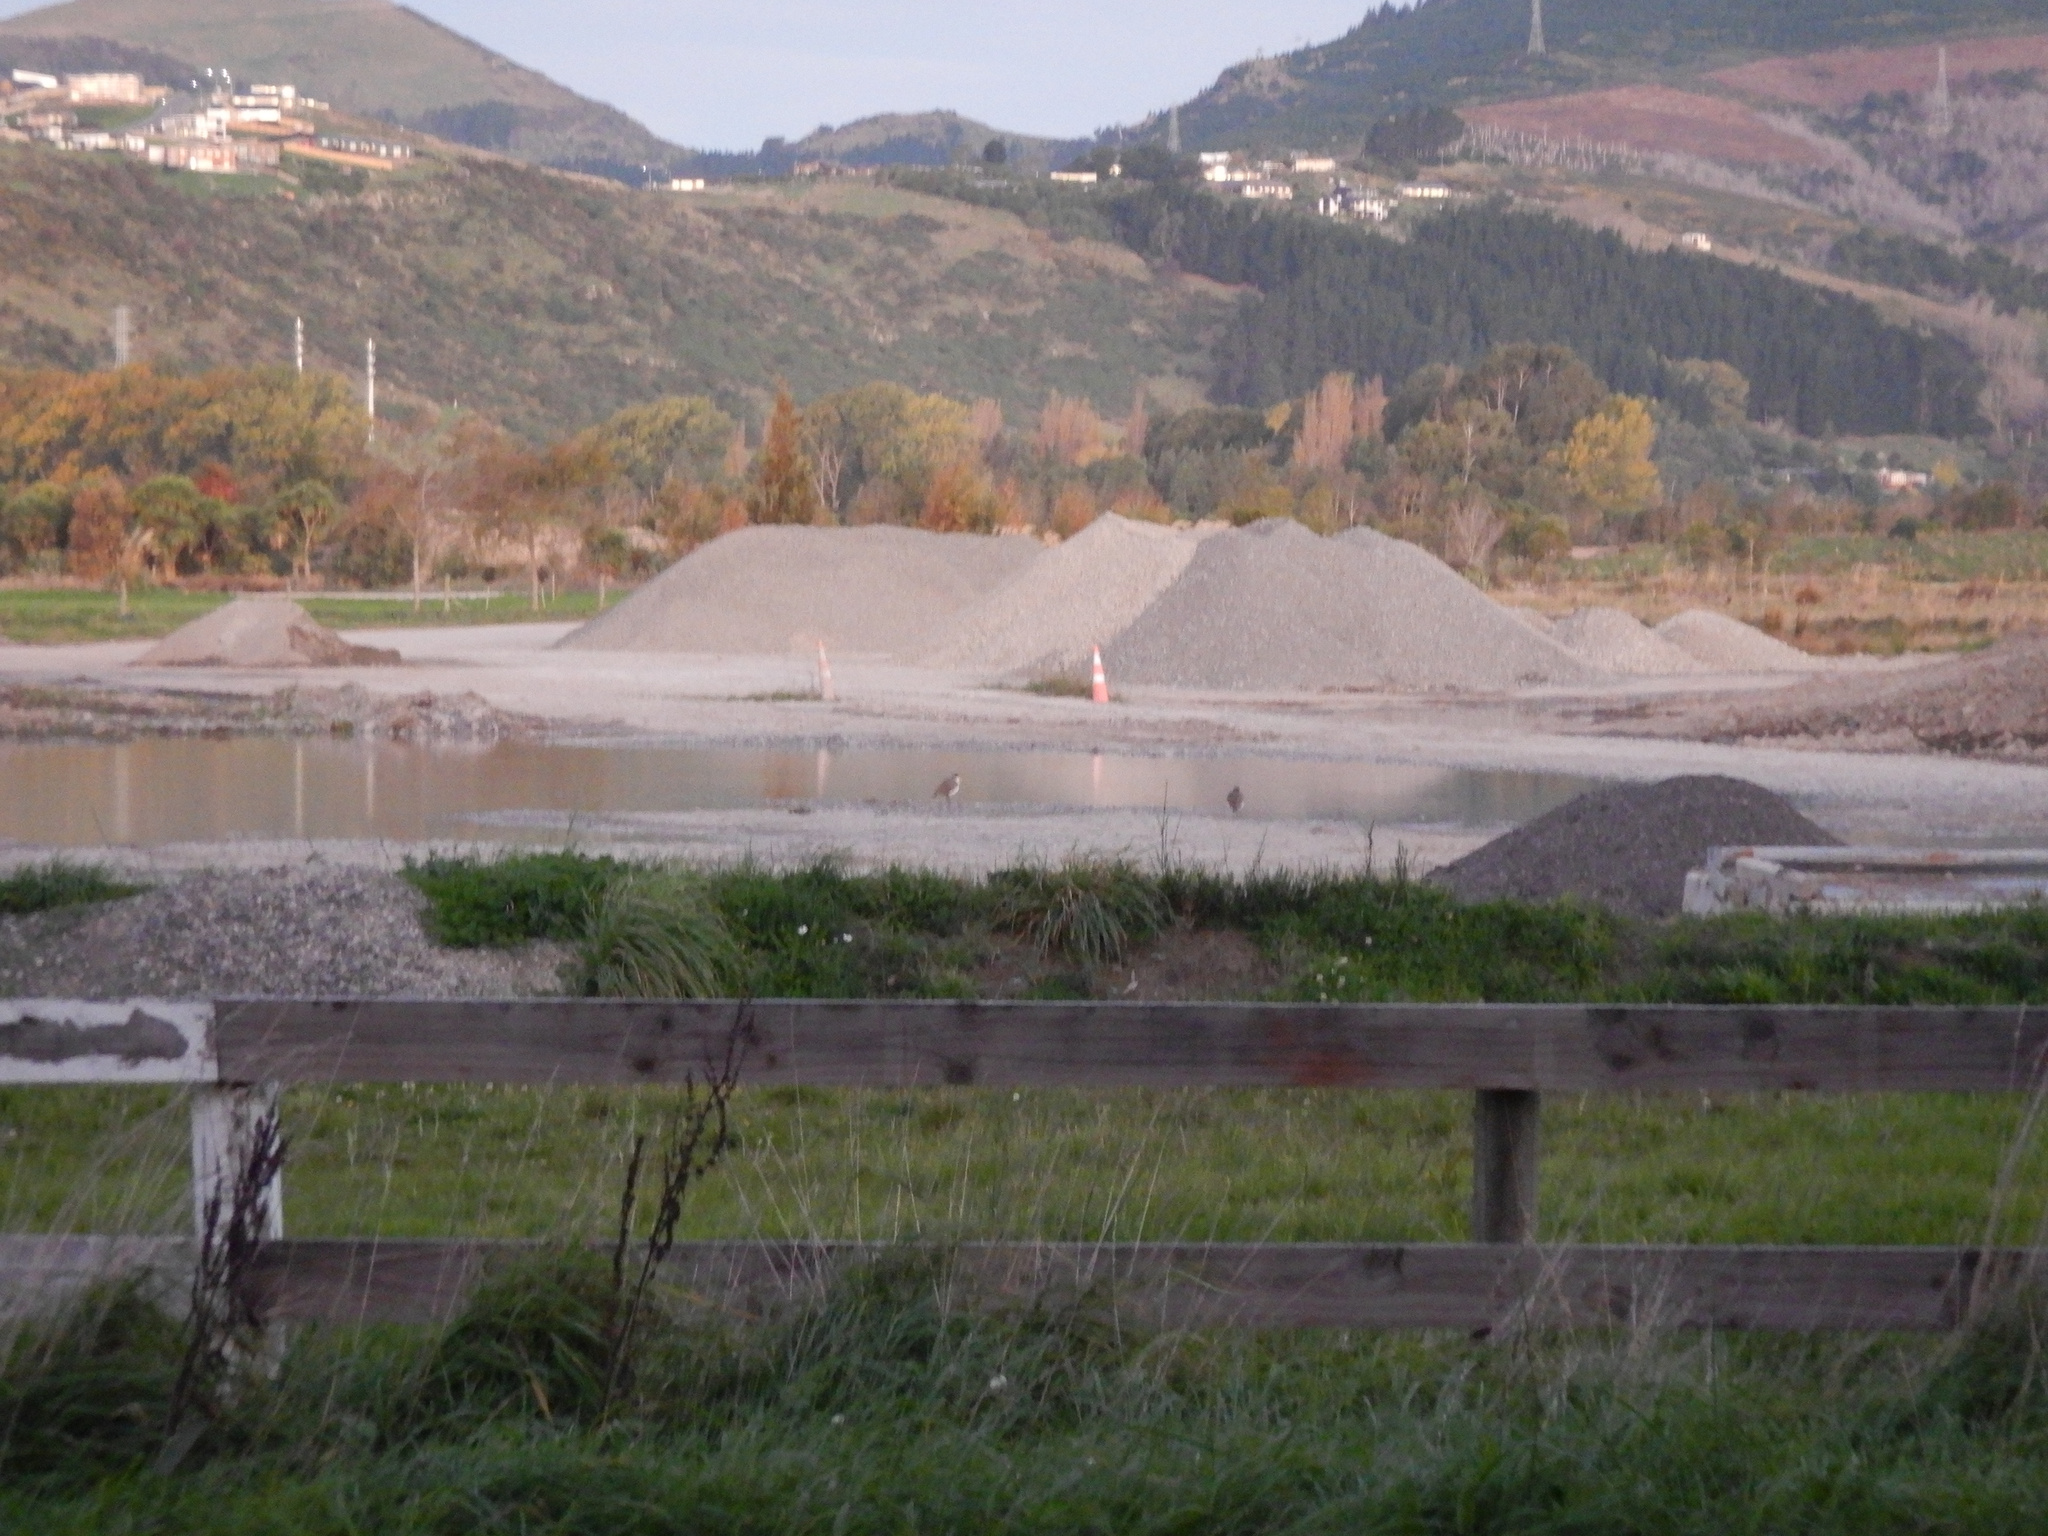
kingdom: Animalia
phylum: Chordata
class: Aves
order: Charadriiformes
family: Charadriidae
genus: Vanellus
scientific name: Vanellus miles
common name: Masked lapwing
